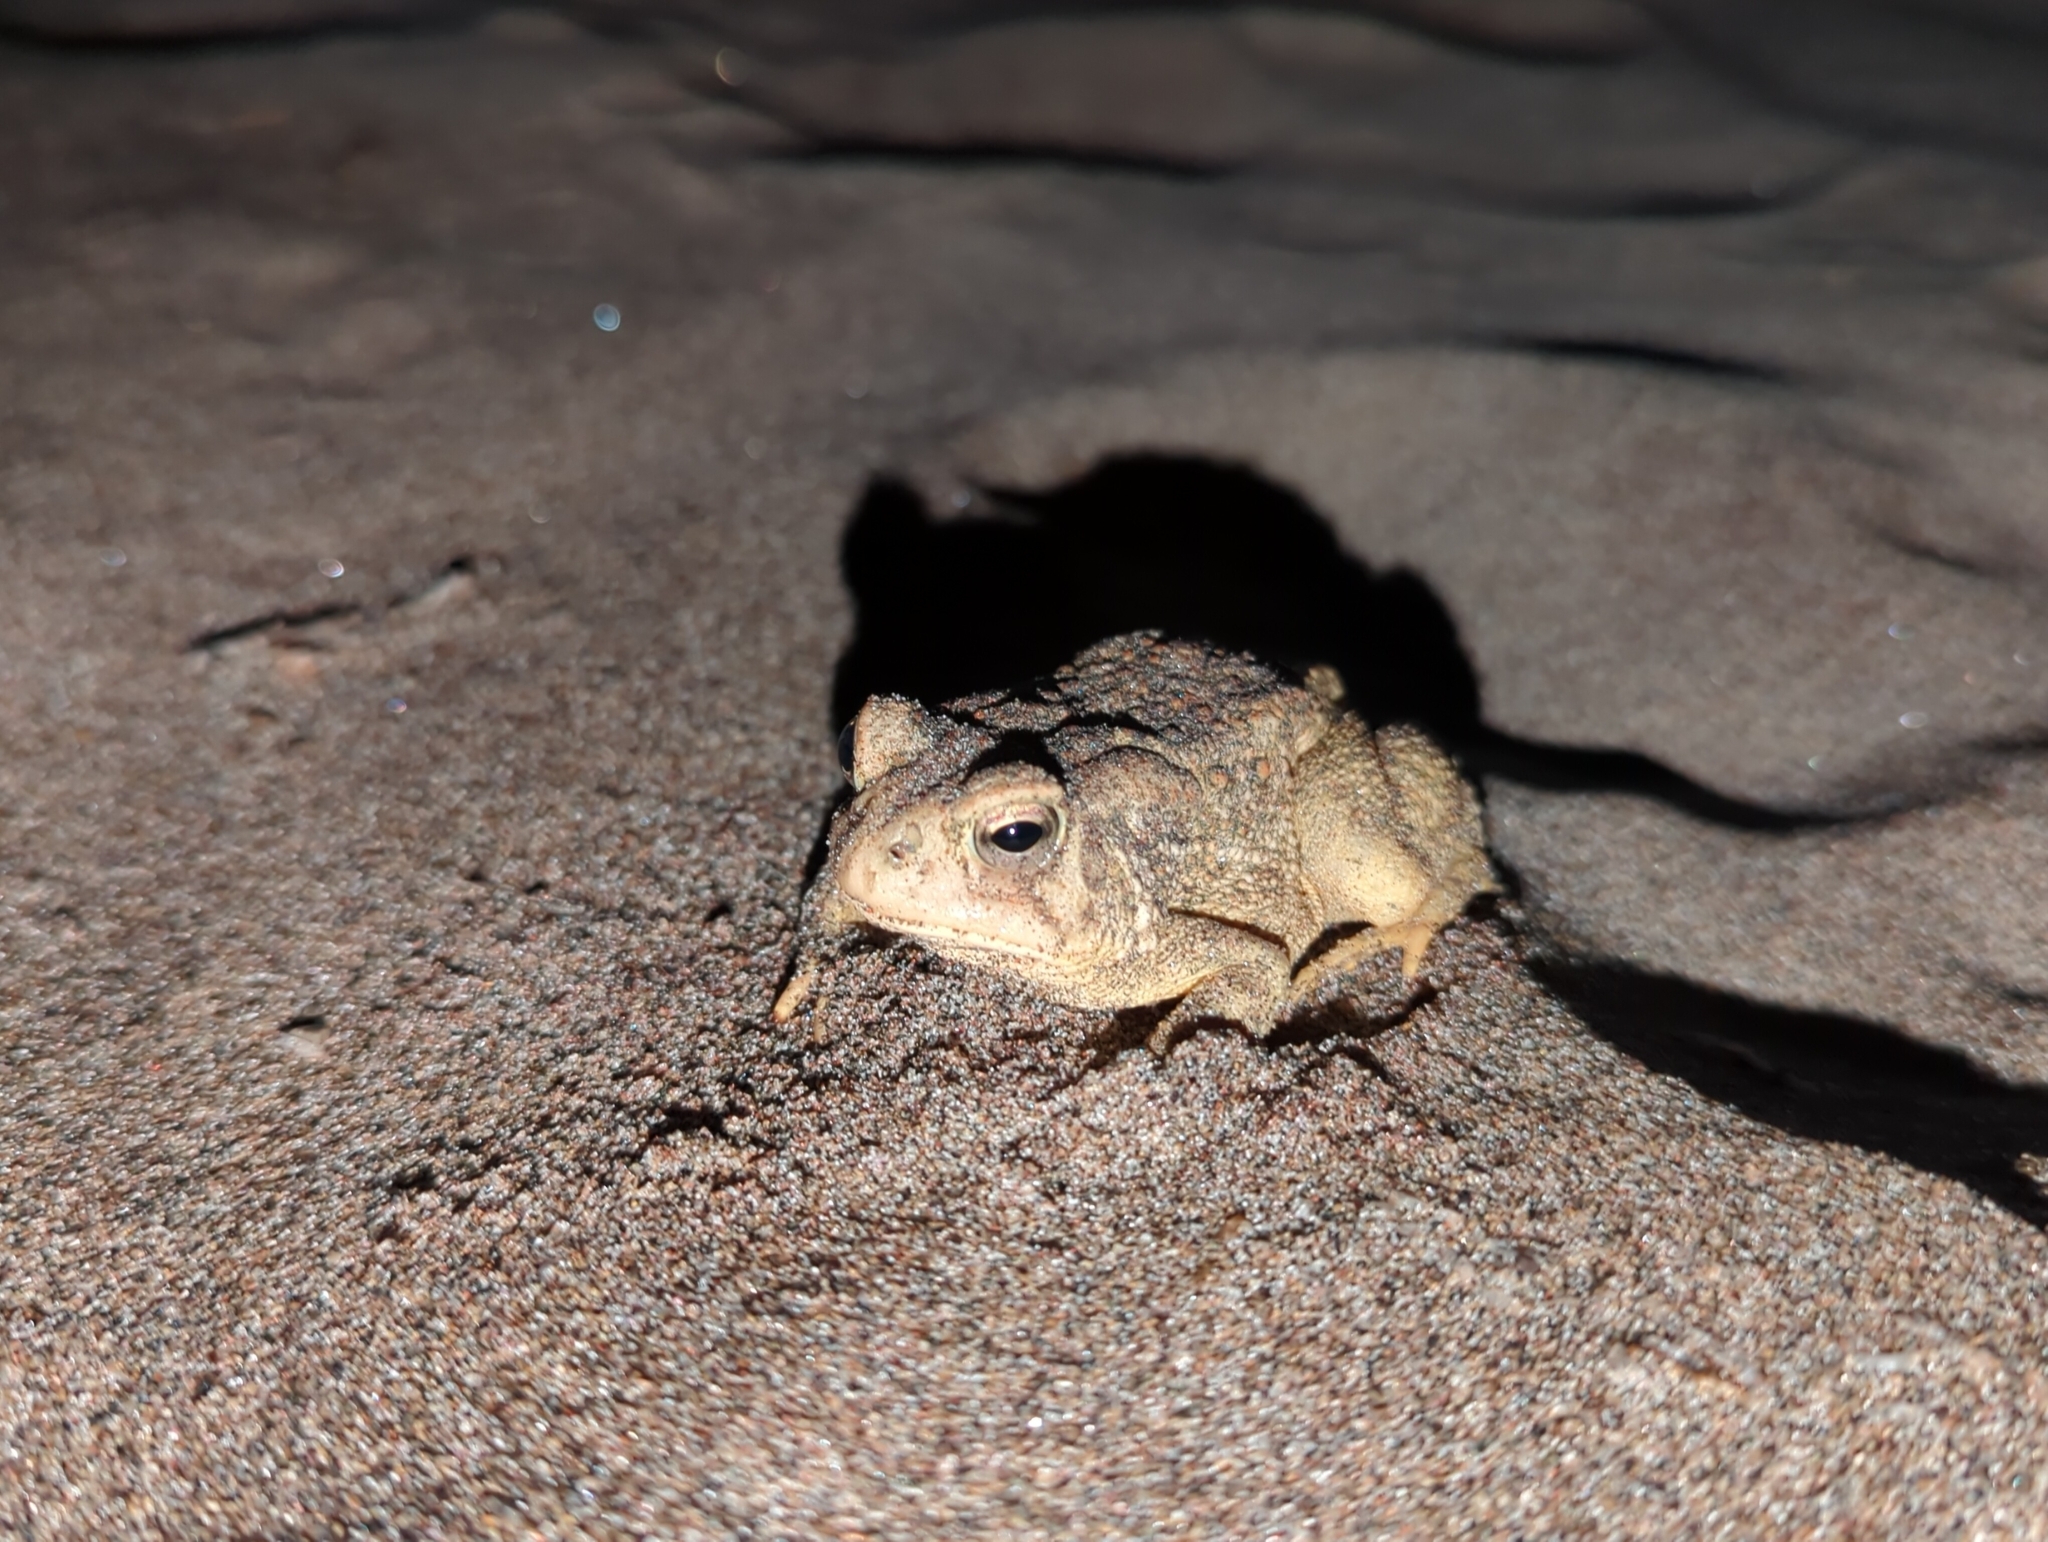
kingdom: Animalia
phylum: Chordata
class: Amphibia
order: Anura
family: Bufonidae
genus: Anaxyrus
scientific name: Anaxyrus fowleri
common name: Fowler's toad
